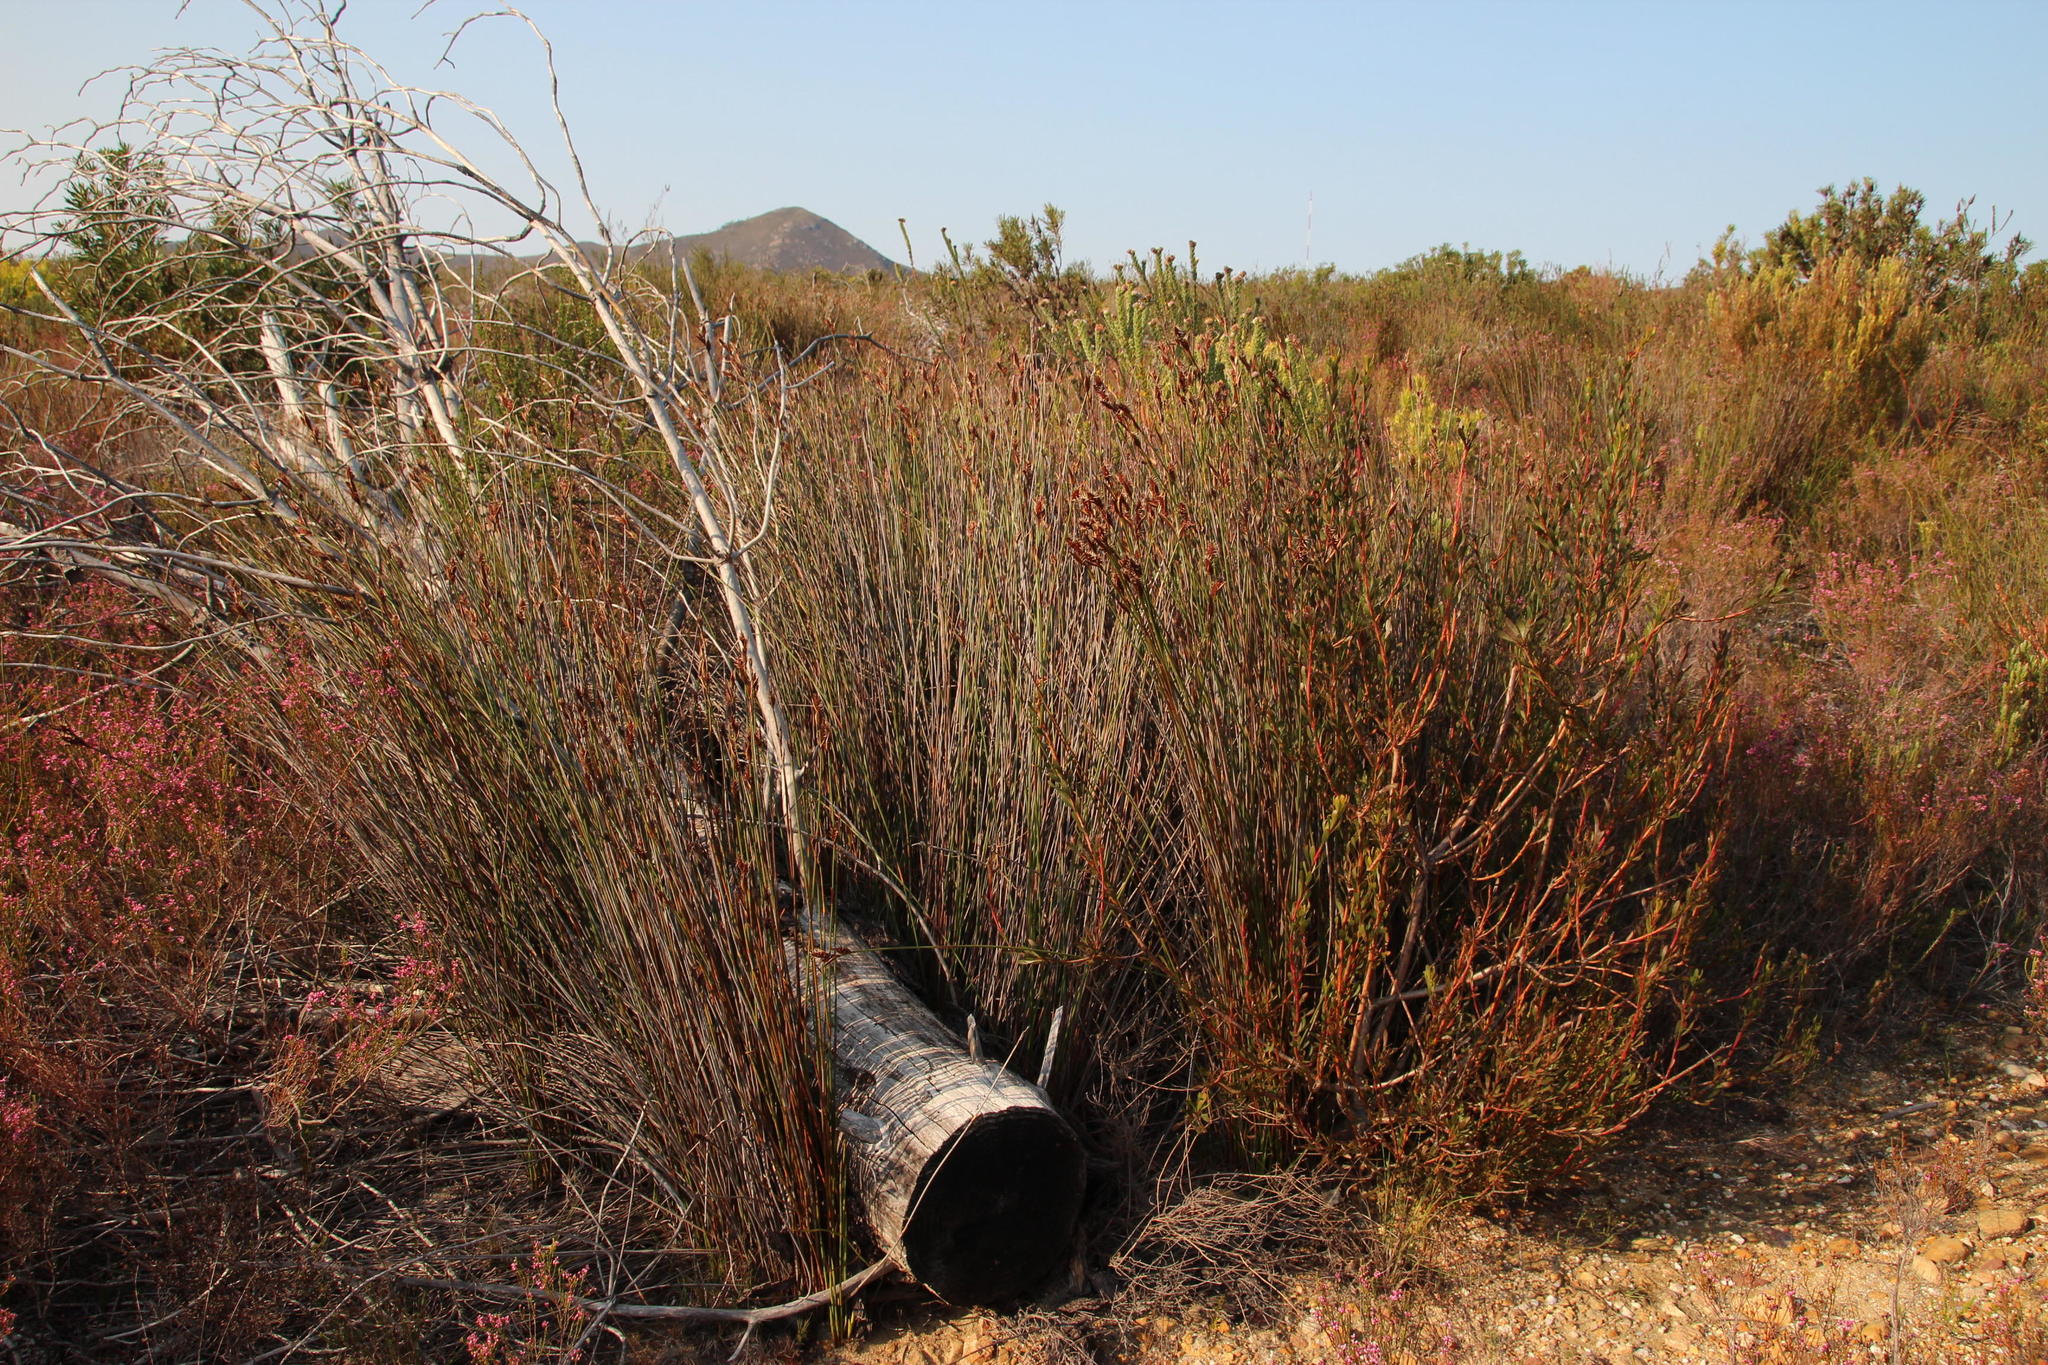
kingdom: Plantae
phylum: Tracheophyta
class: Liliopsida
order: Poales
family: Restionaceae
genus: Hypodiscus
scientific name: Hypodiscus aristatus
